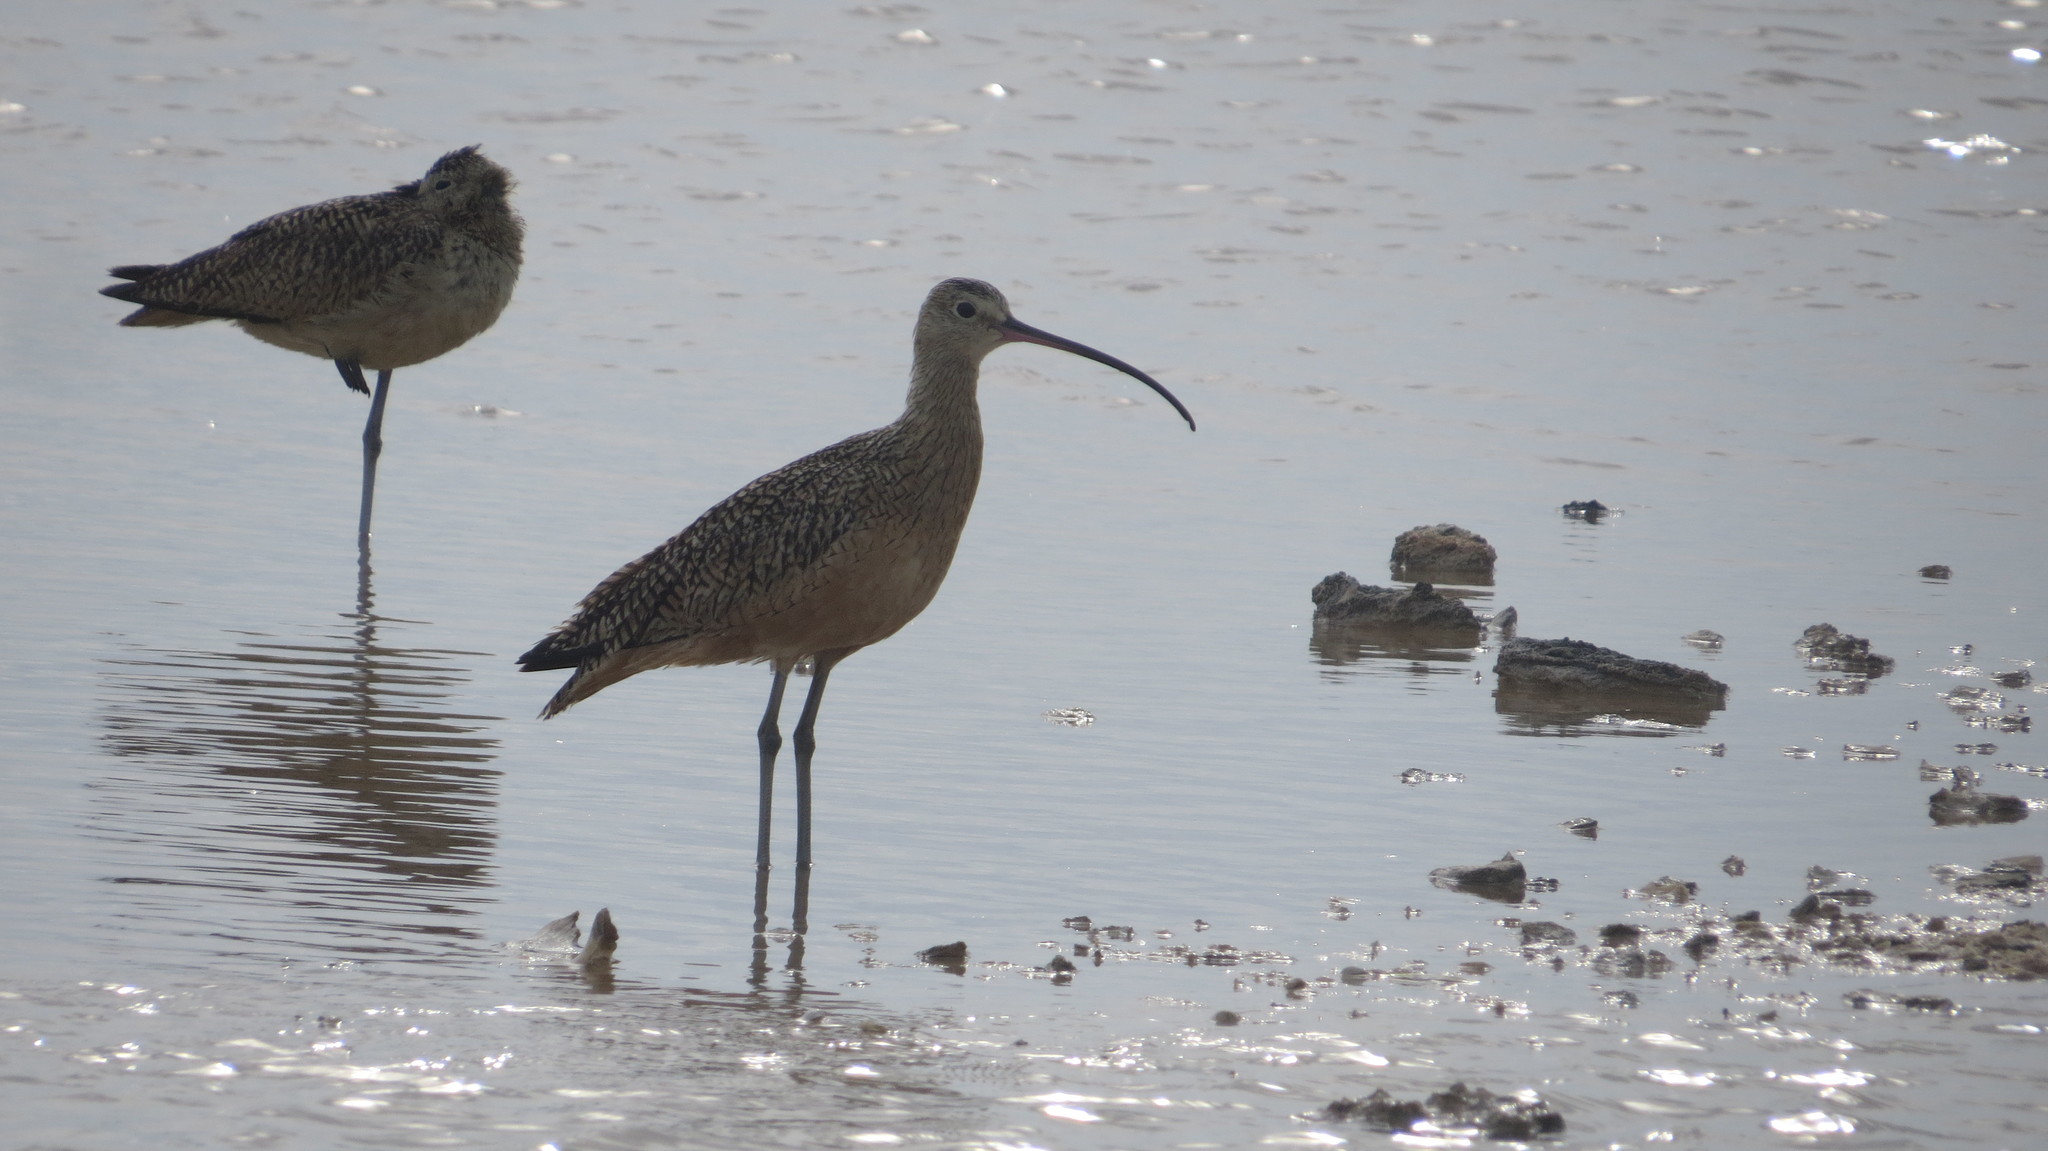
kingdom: Animalia
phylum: Chordata
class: Aves
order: Charadriiformes
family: Scolopacidae
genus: Numenius
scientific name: Numenius americanus
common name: Long-billed curlew
